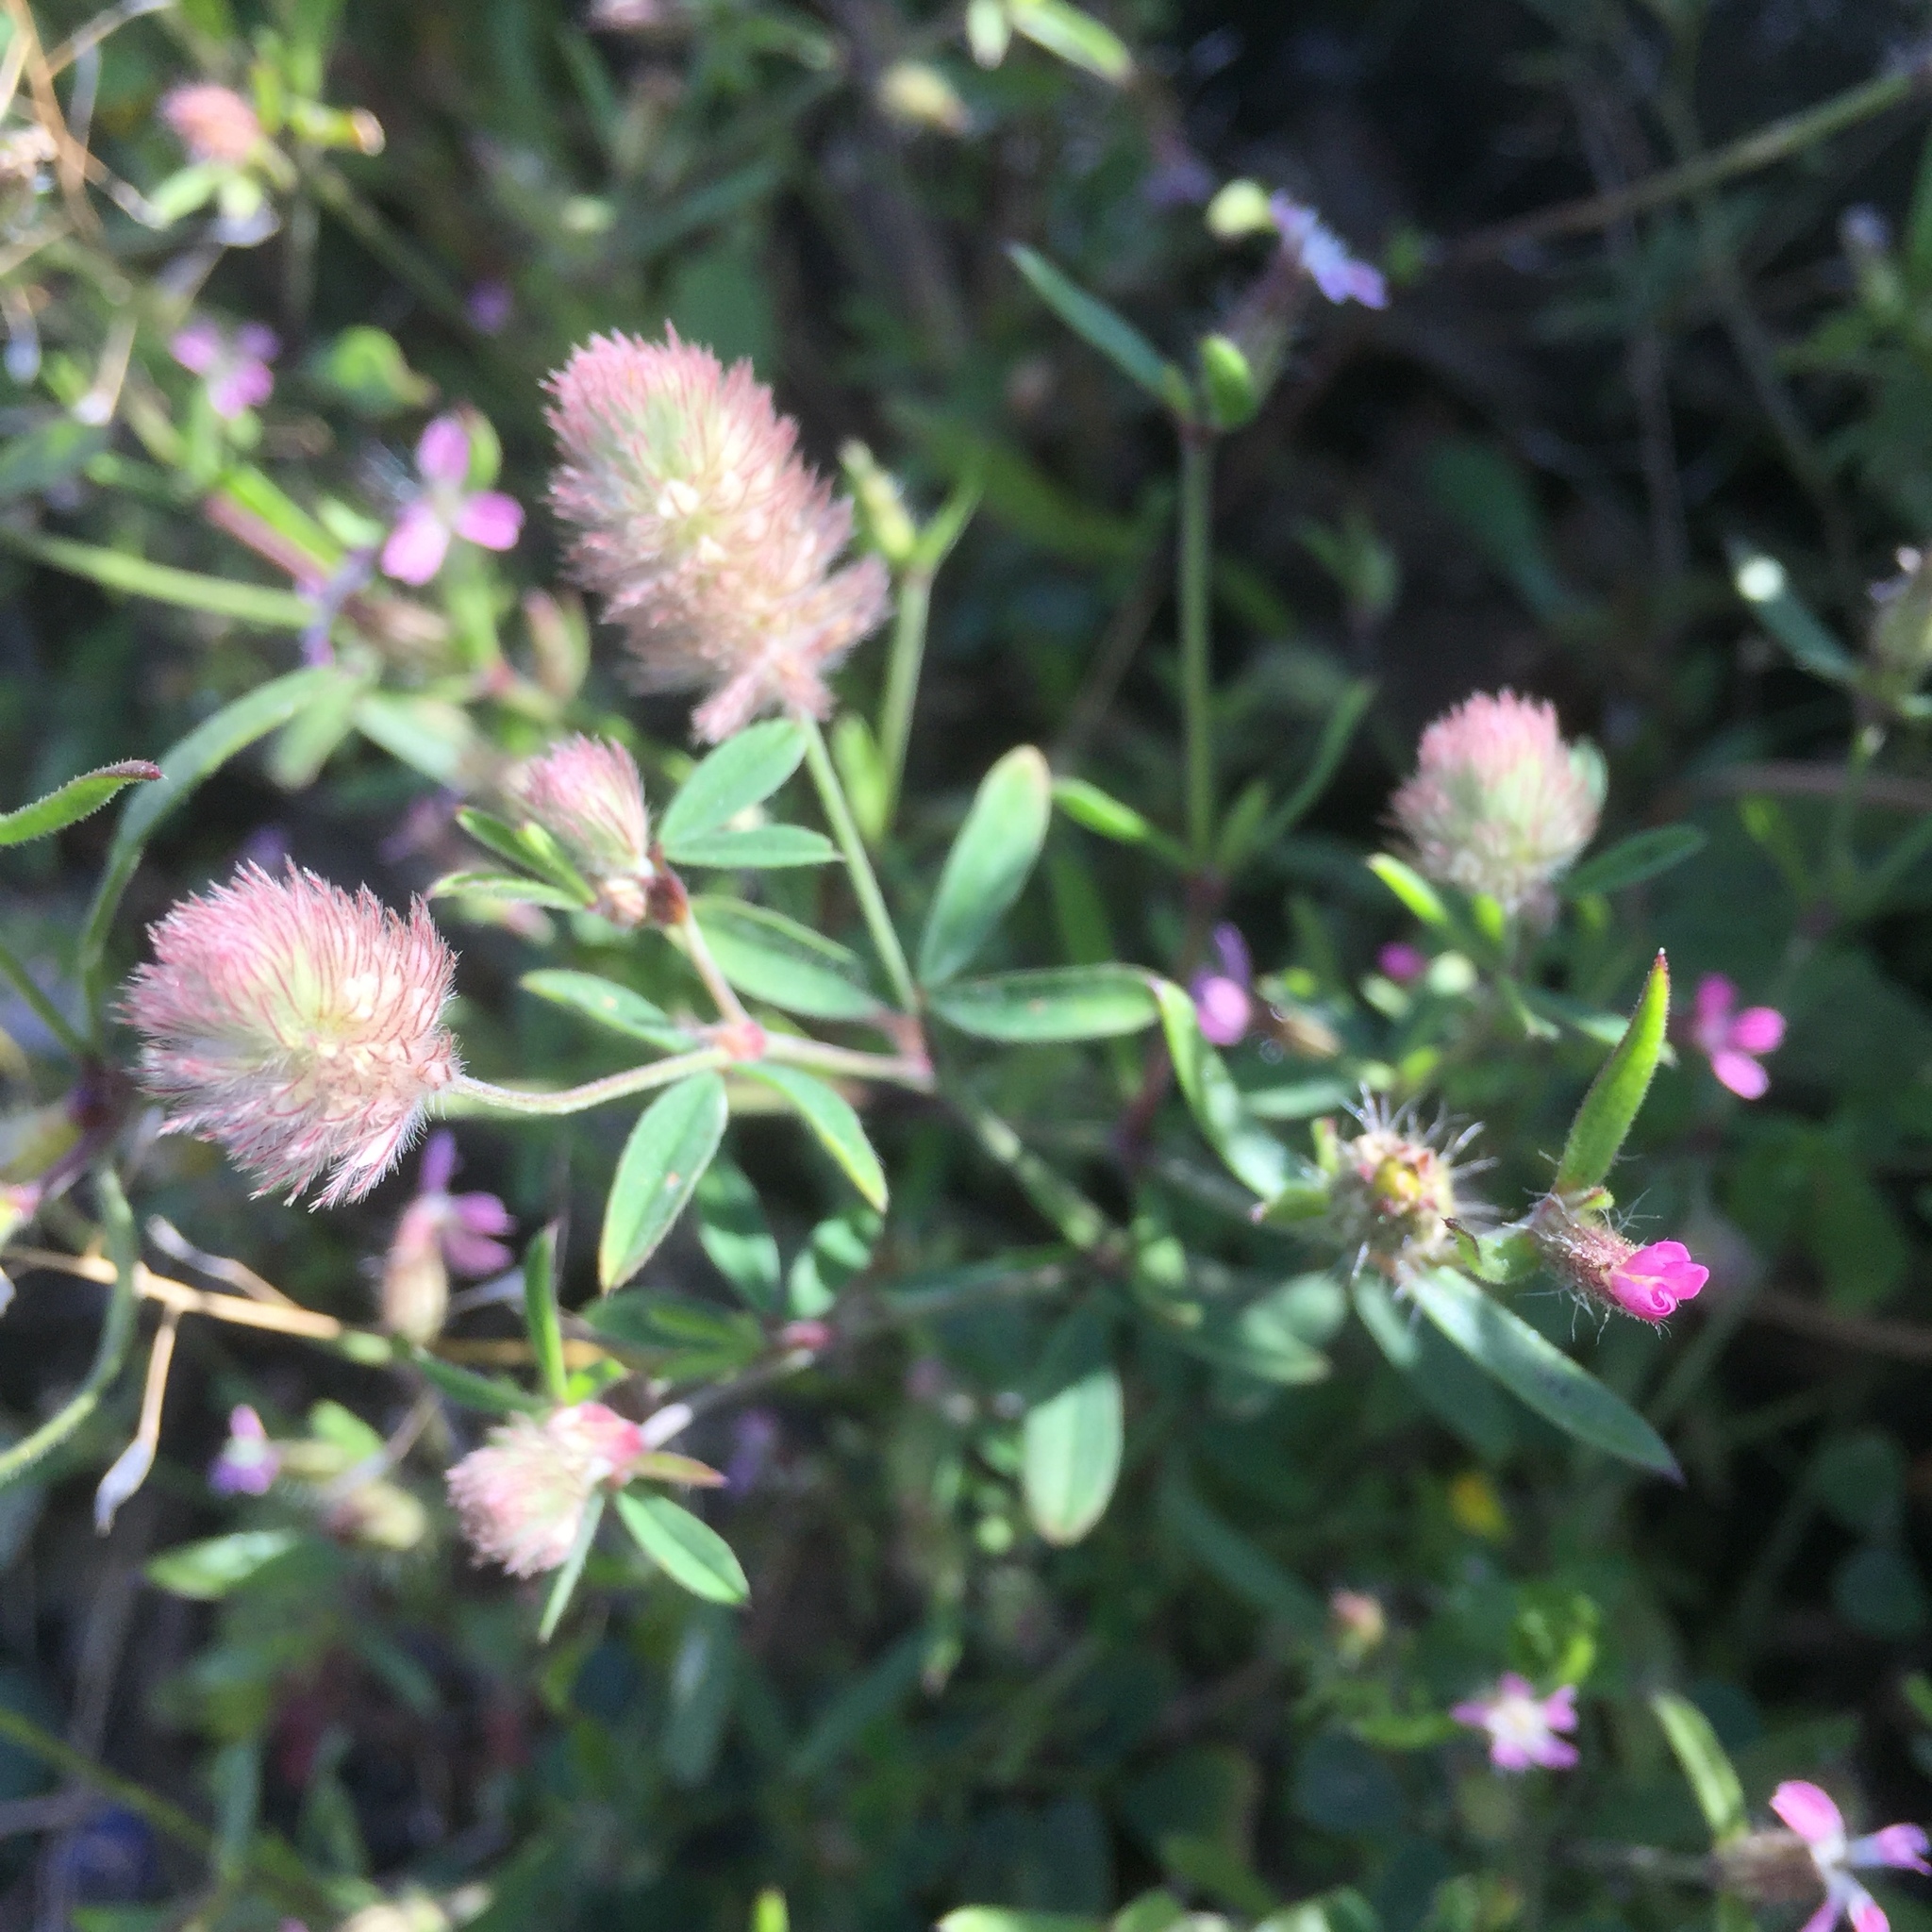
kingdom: Plantae
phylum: Tracheophyta
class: Magnoliopsida
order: Fabales
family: Fabaceae
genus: Trifolium
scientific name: Trifolium arvense
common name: Hare's-foot clover
